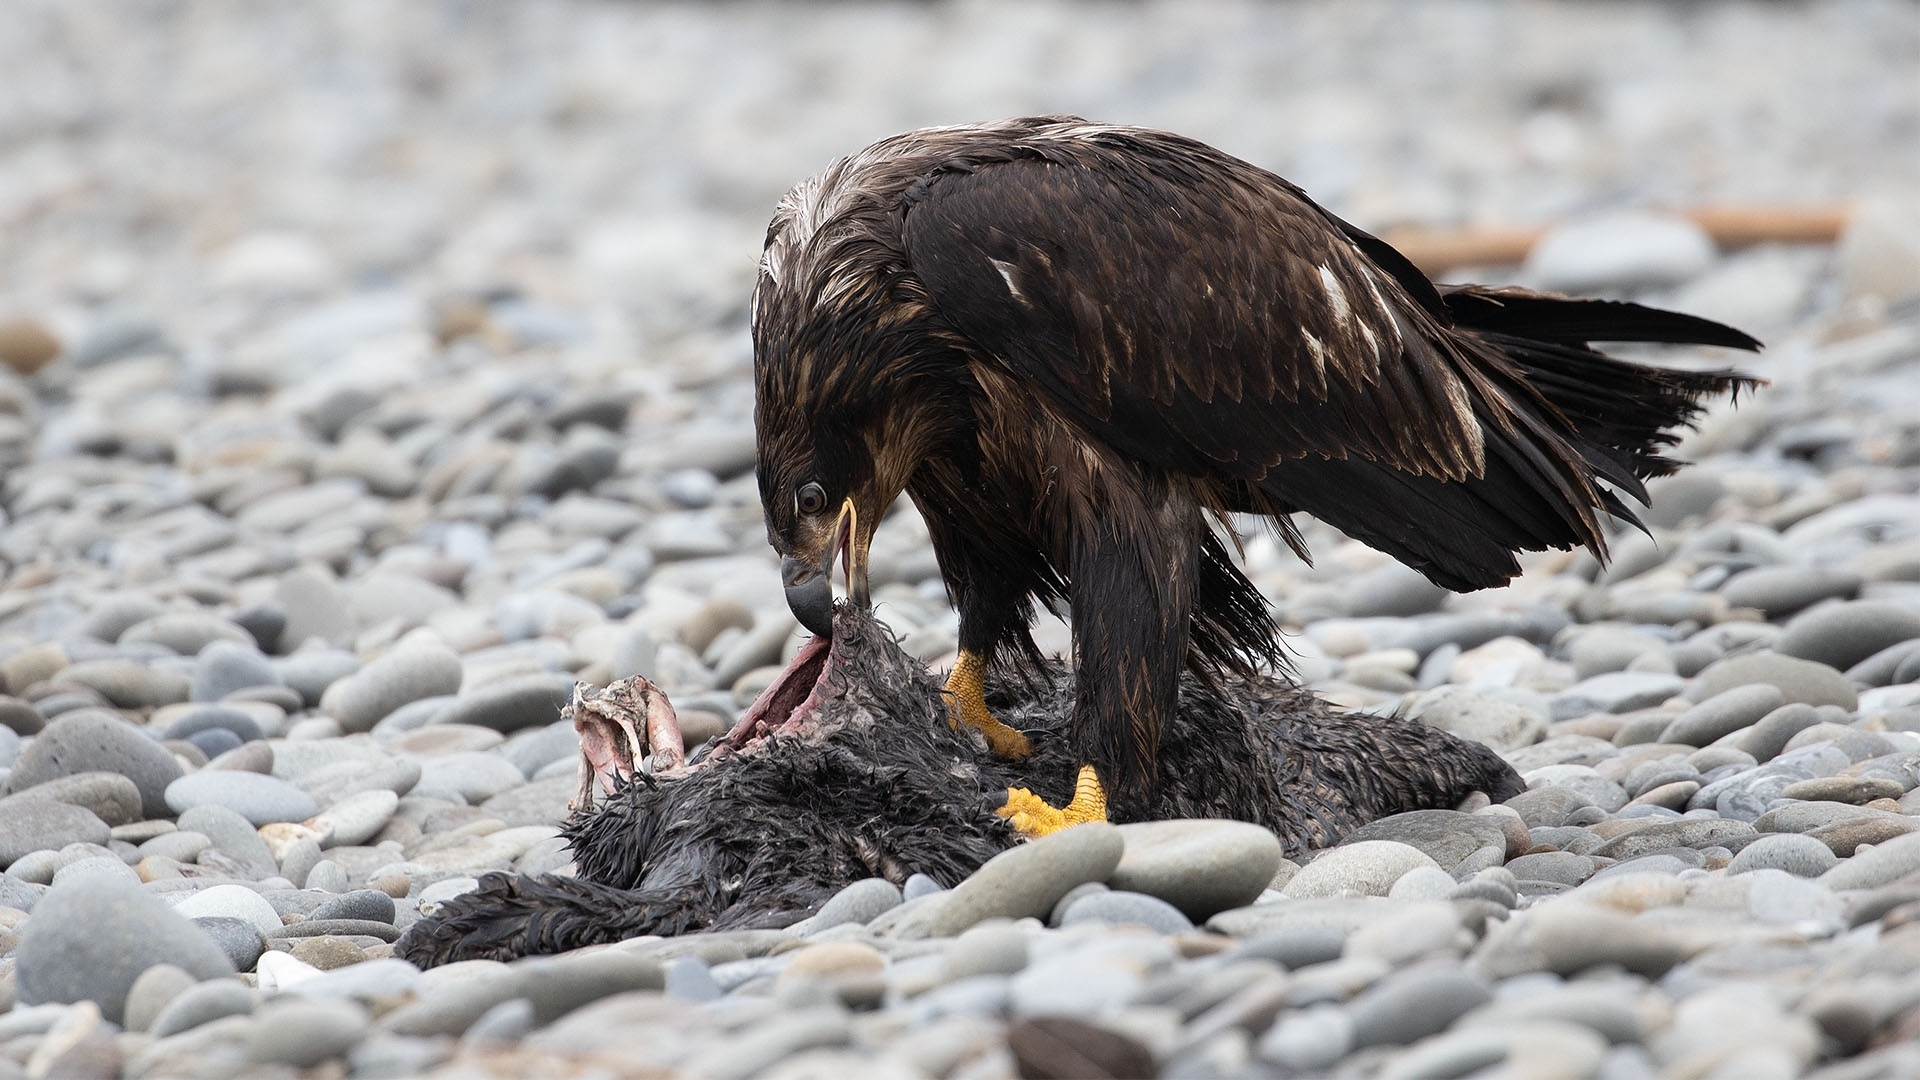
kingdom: Animalia
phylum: Chordata
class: Aves
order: Accipitriformes
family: Accipitridae
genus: Haliaeetus
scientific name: Haliaeetus leucocephalus
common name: Bald eagle
